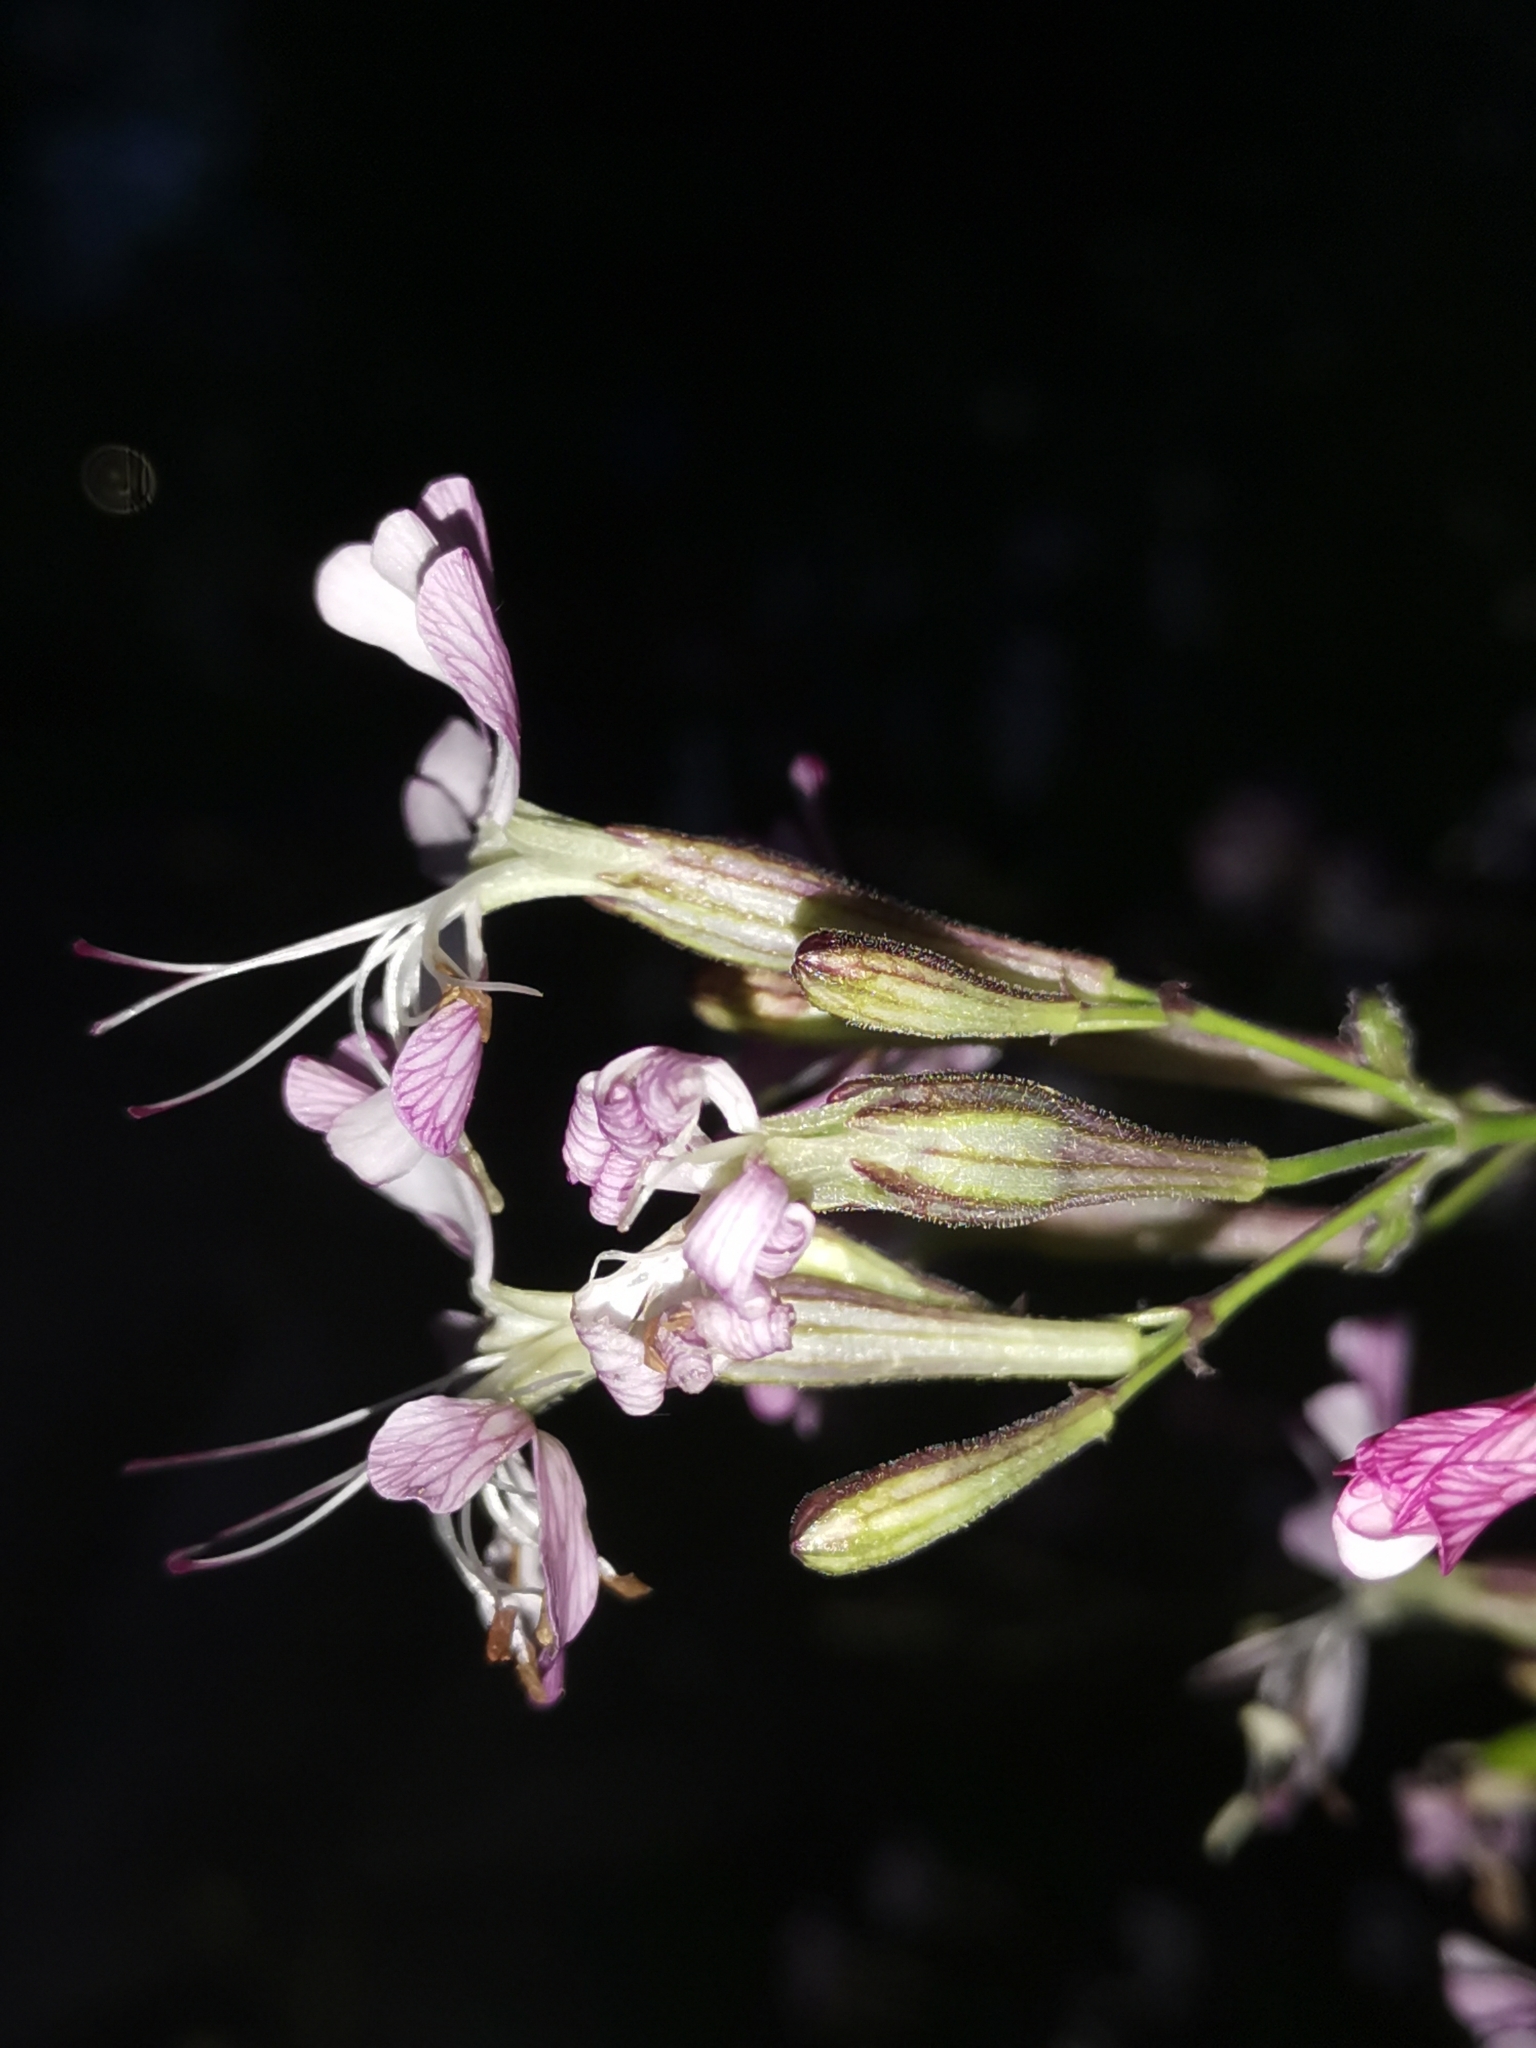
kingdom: Plantae
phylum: Tracheophyta
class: Magnoliopsida
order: Caryophyllales
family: Caryophyllaceae
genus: Silene
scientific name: Silene italica
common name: Italian catchfly
